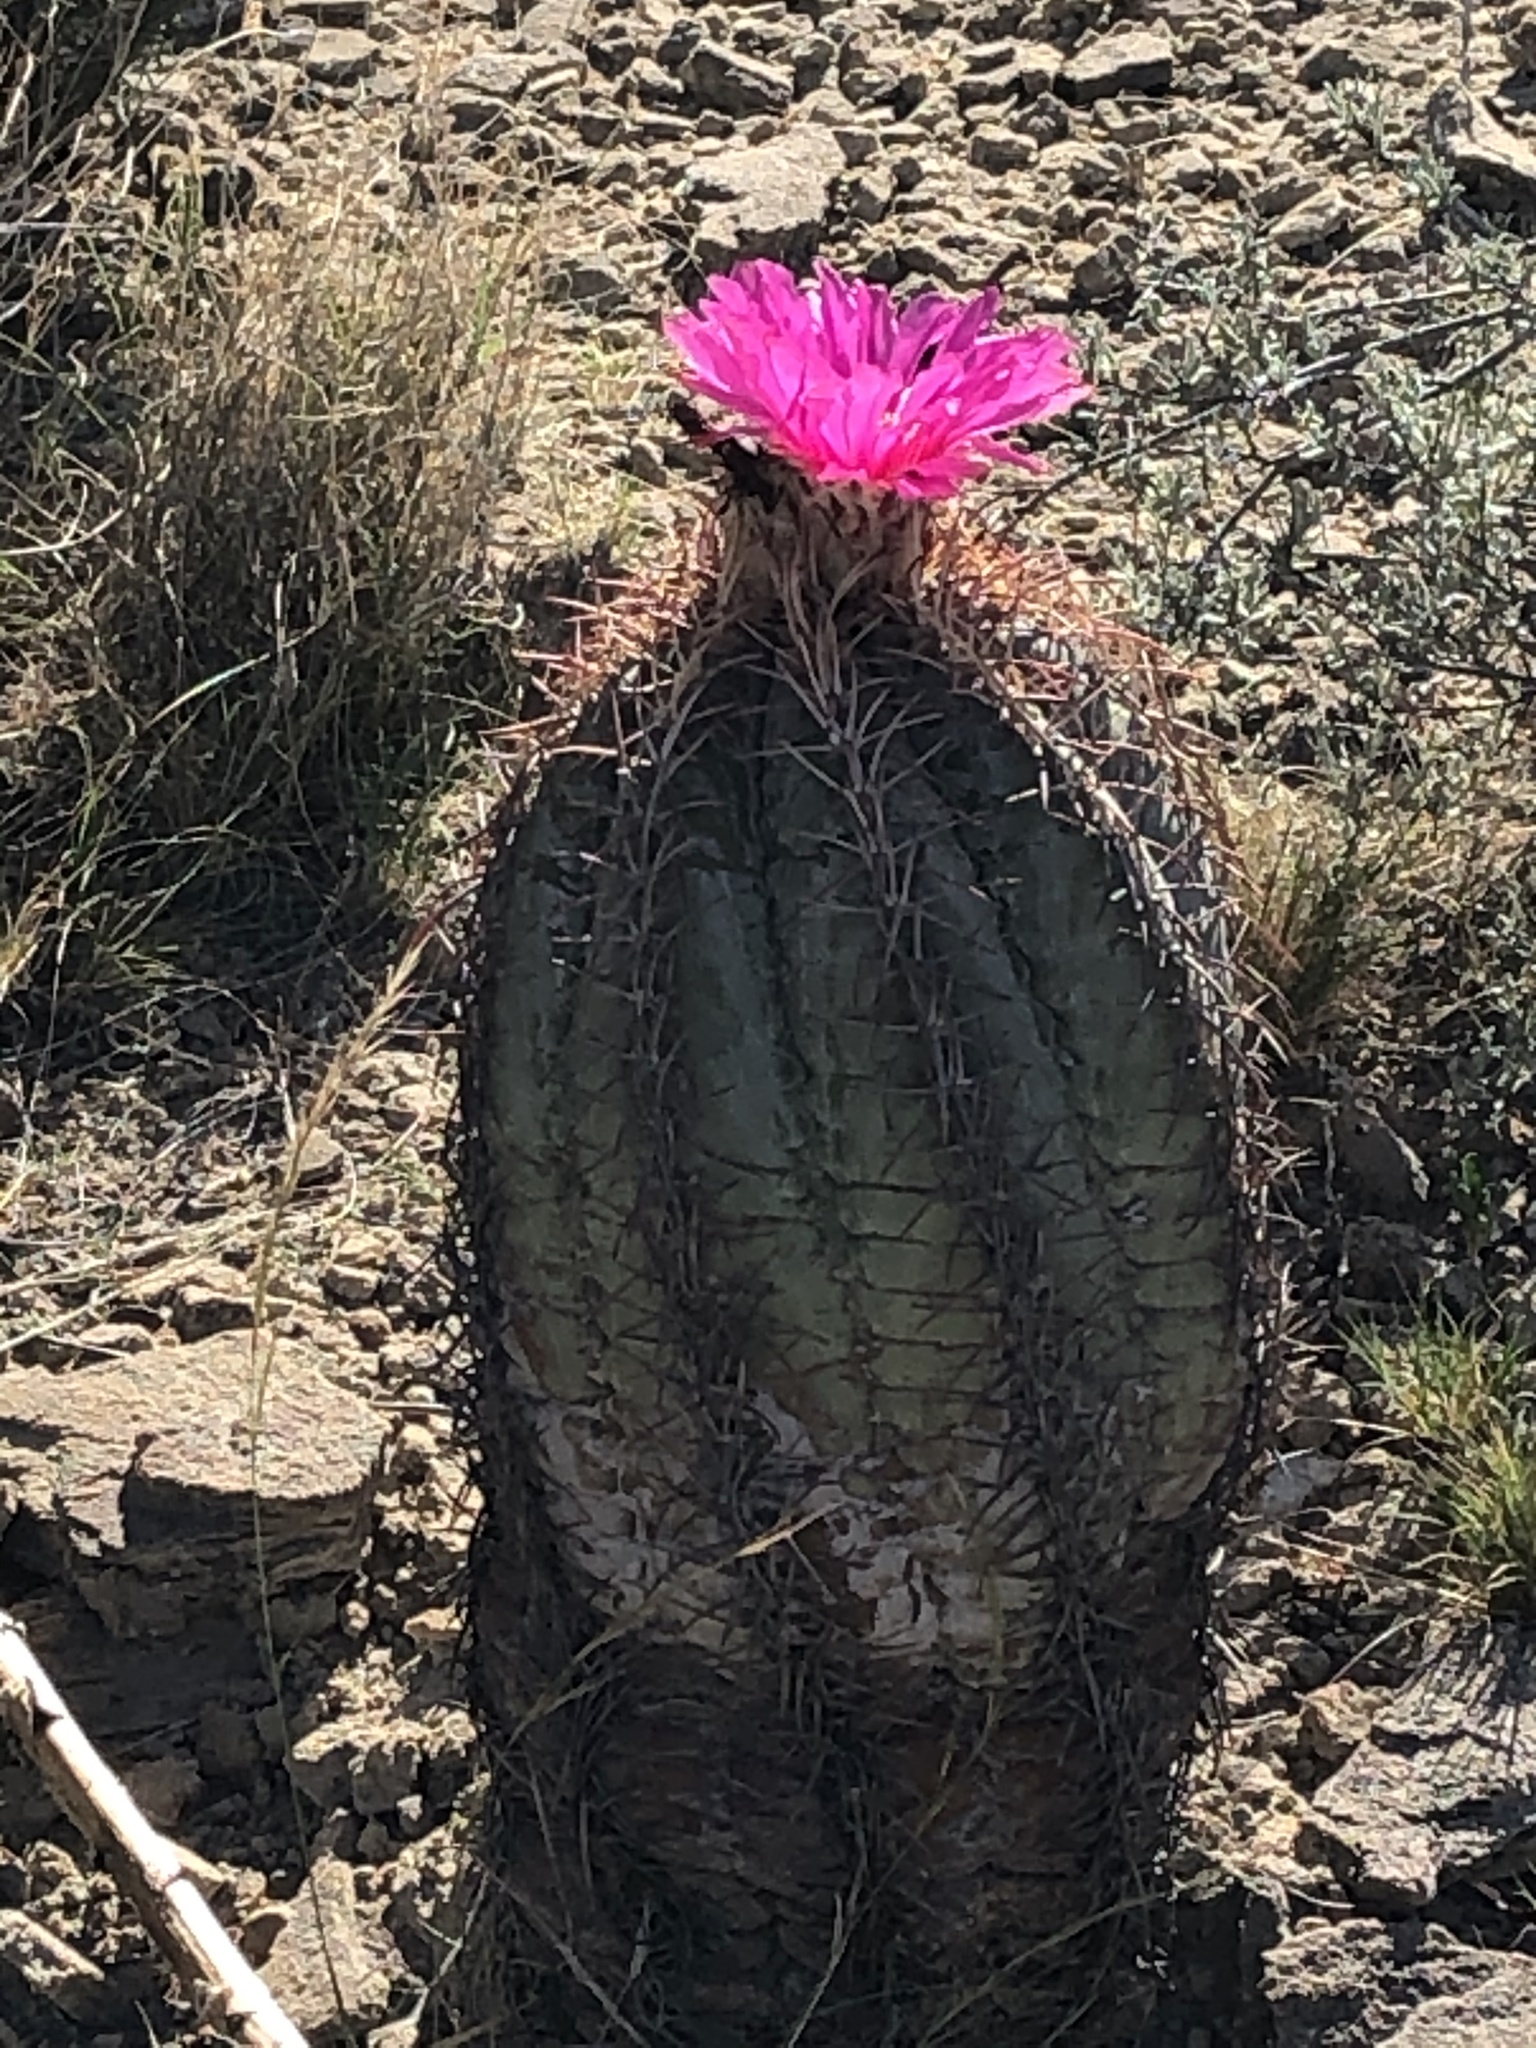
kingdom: Plantae
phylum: Tracheophyta
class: Magnoliopsida
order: Caryophyllales
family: Cactaceae
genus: Echinocactus
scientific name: Echinocactus horizonthalonius
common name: Devilshead
